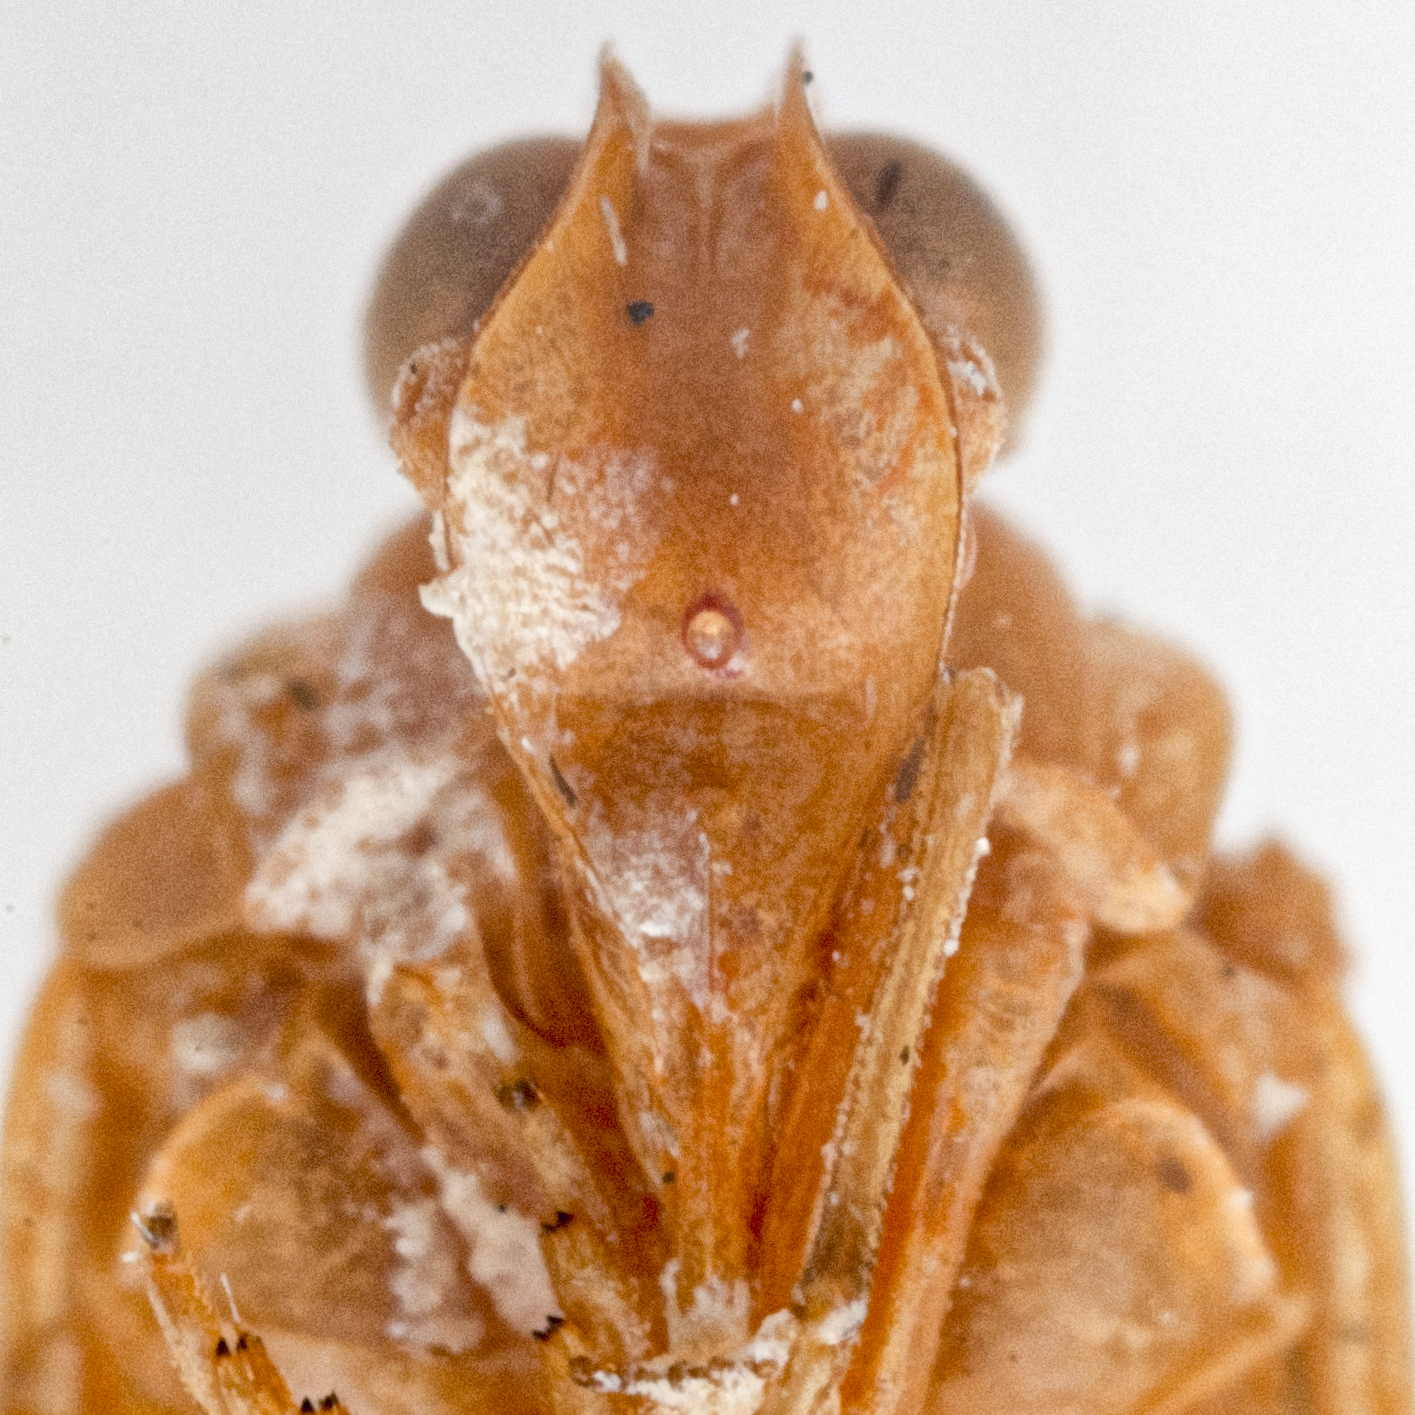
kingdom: Animalia
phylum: Arthropoda
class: Insecta
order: Hemiptera
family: Cixiidae
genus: Diastrocixius
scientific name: Diastrocixius thelyus
